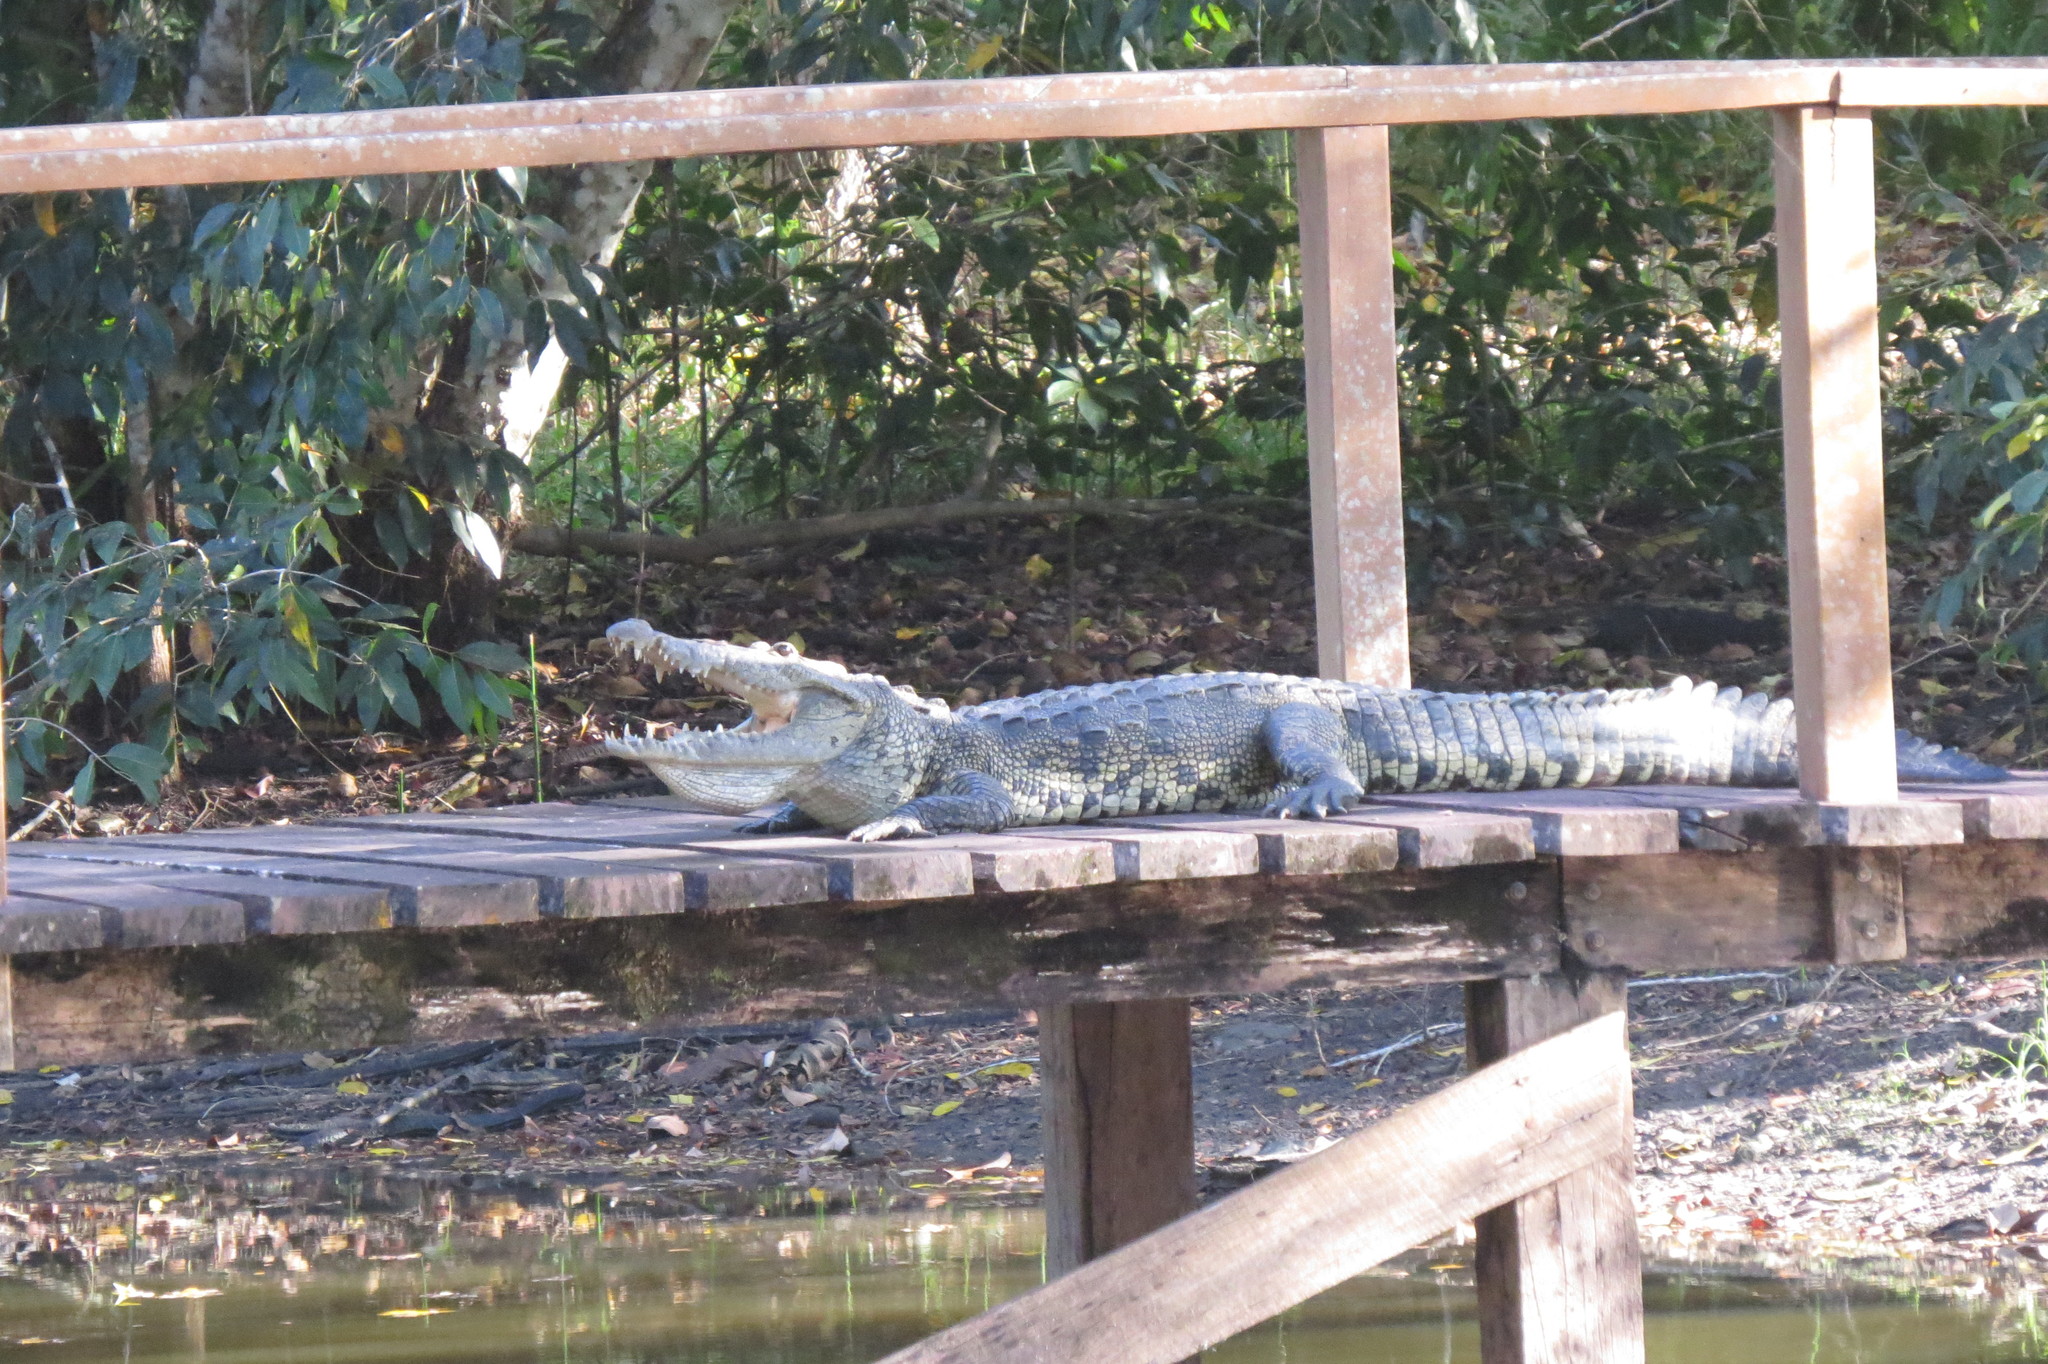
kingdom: Animalia
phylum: Chordata
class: Crocodylia
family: Crocodylidae
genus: Crocodylus
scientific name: Crocodylus moreletii
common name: Morelet's crocodile
